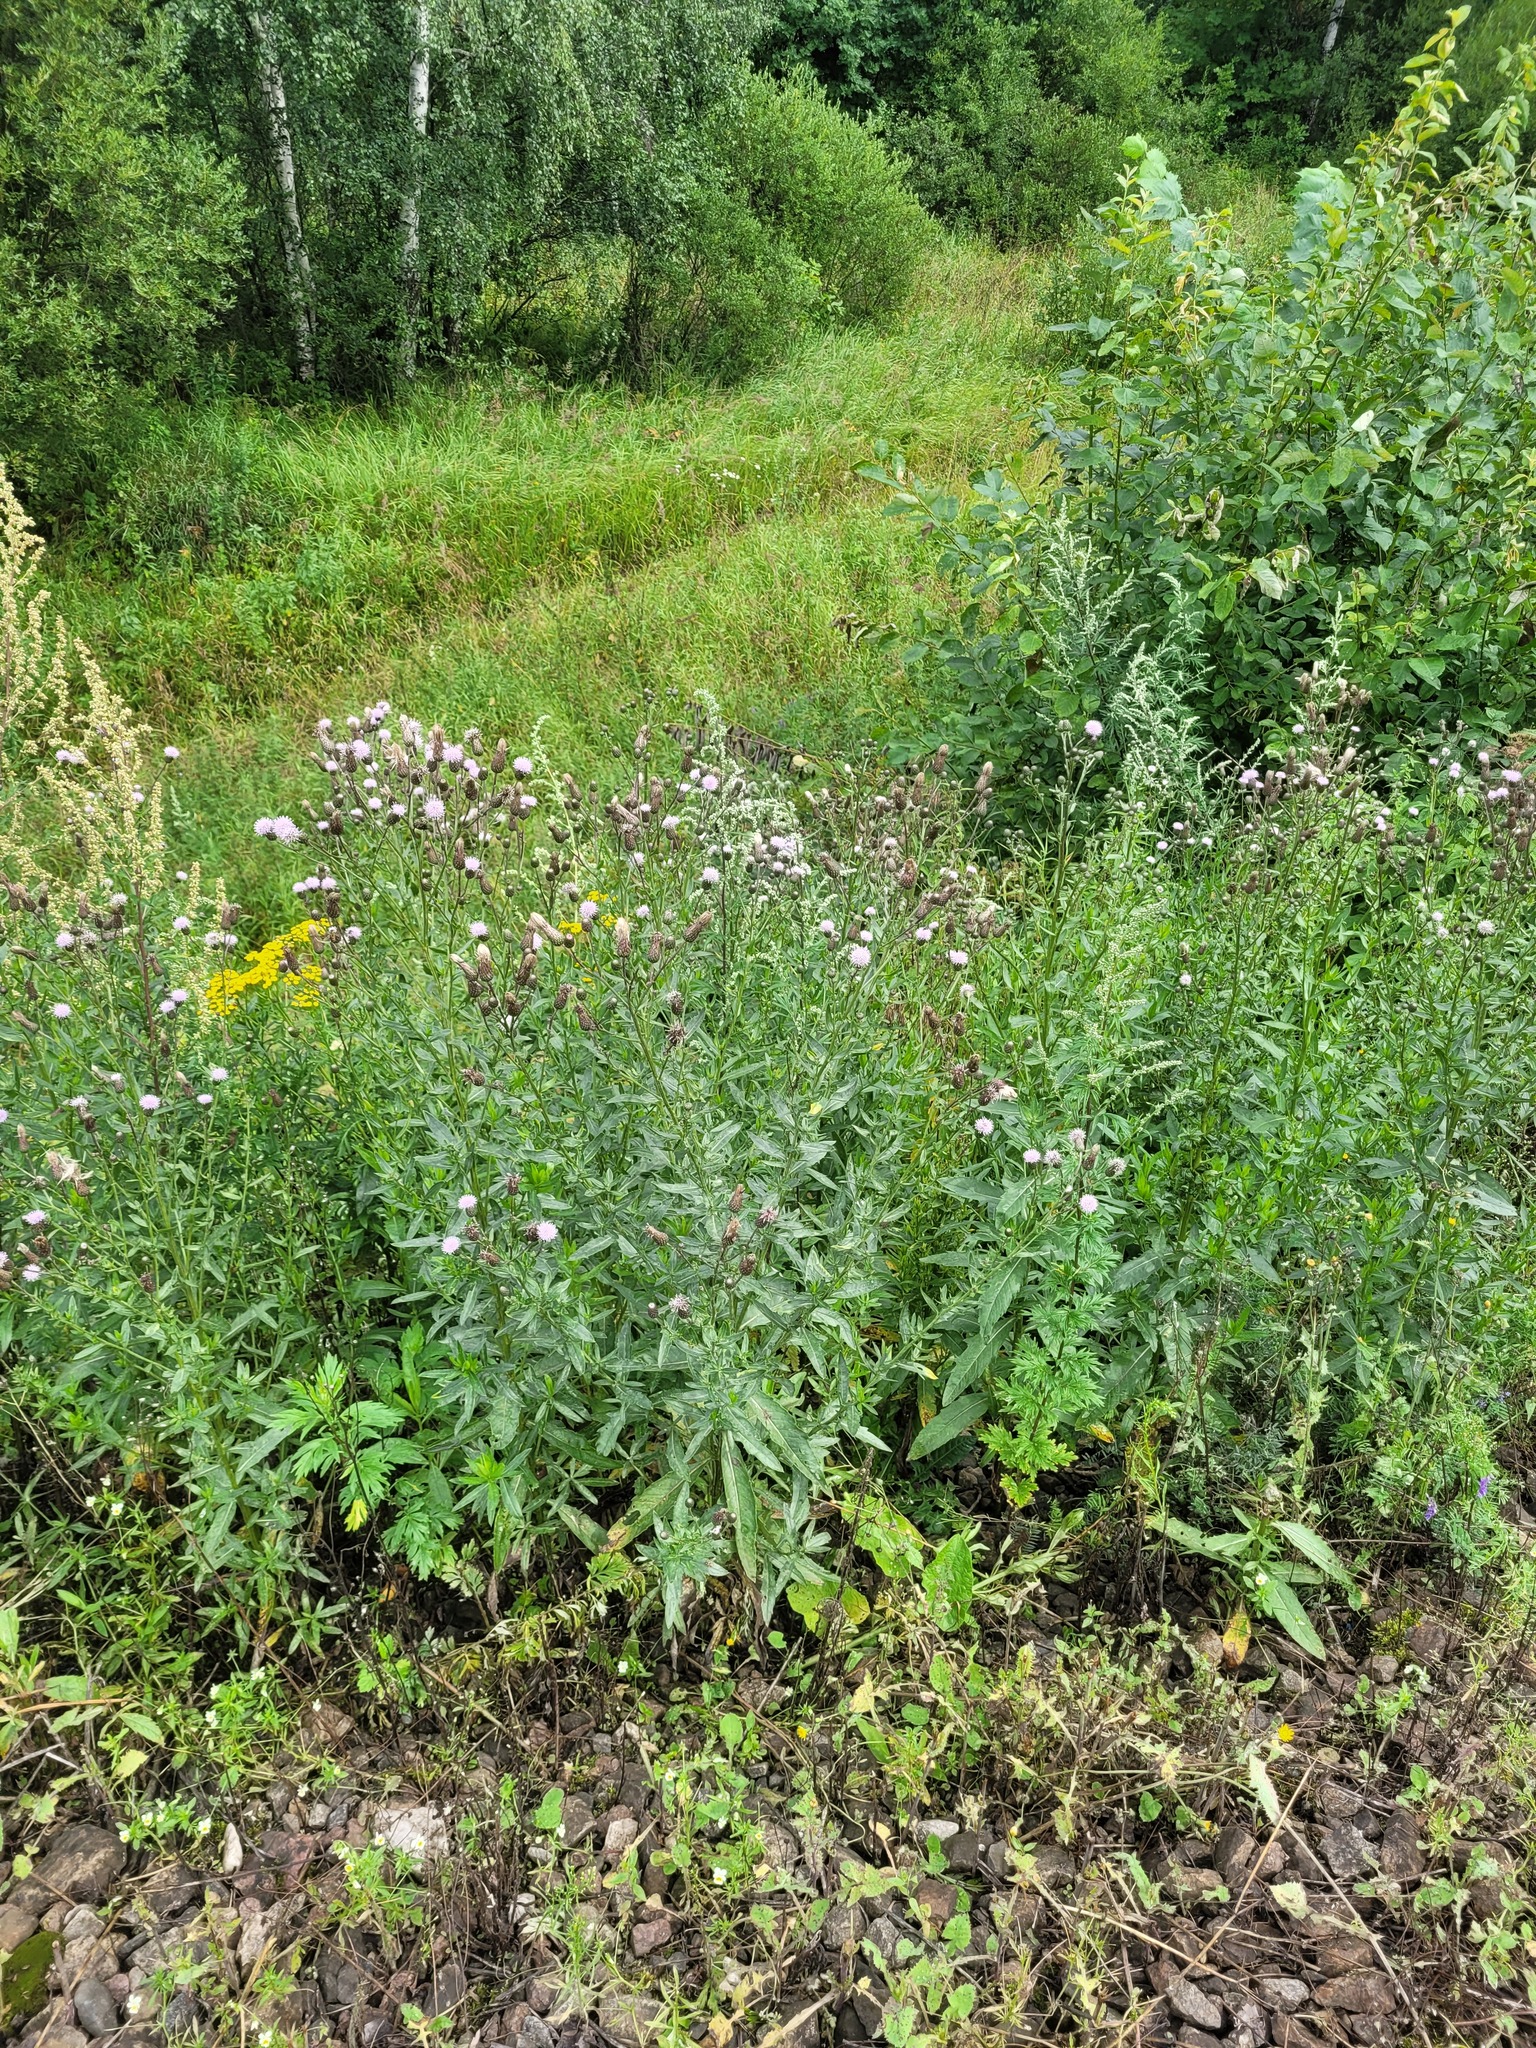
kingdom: Plantae
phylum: Tracheophyta
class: Magnoliopsida
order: Asterales
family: Asteraceae
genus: Cirsium
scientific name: Cirsium arvense
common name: Creeping thistle
